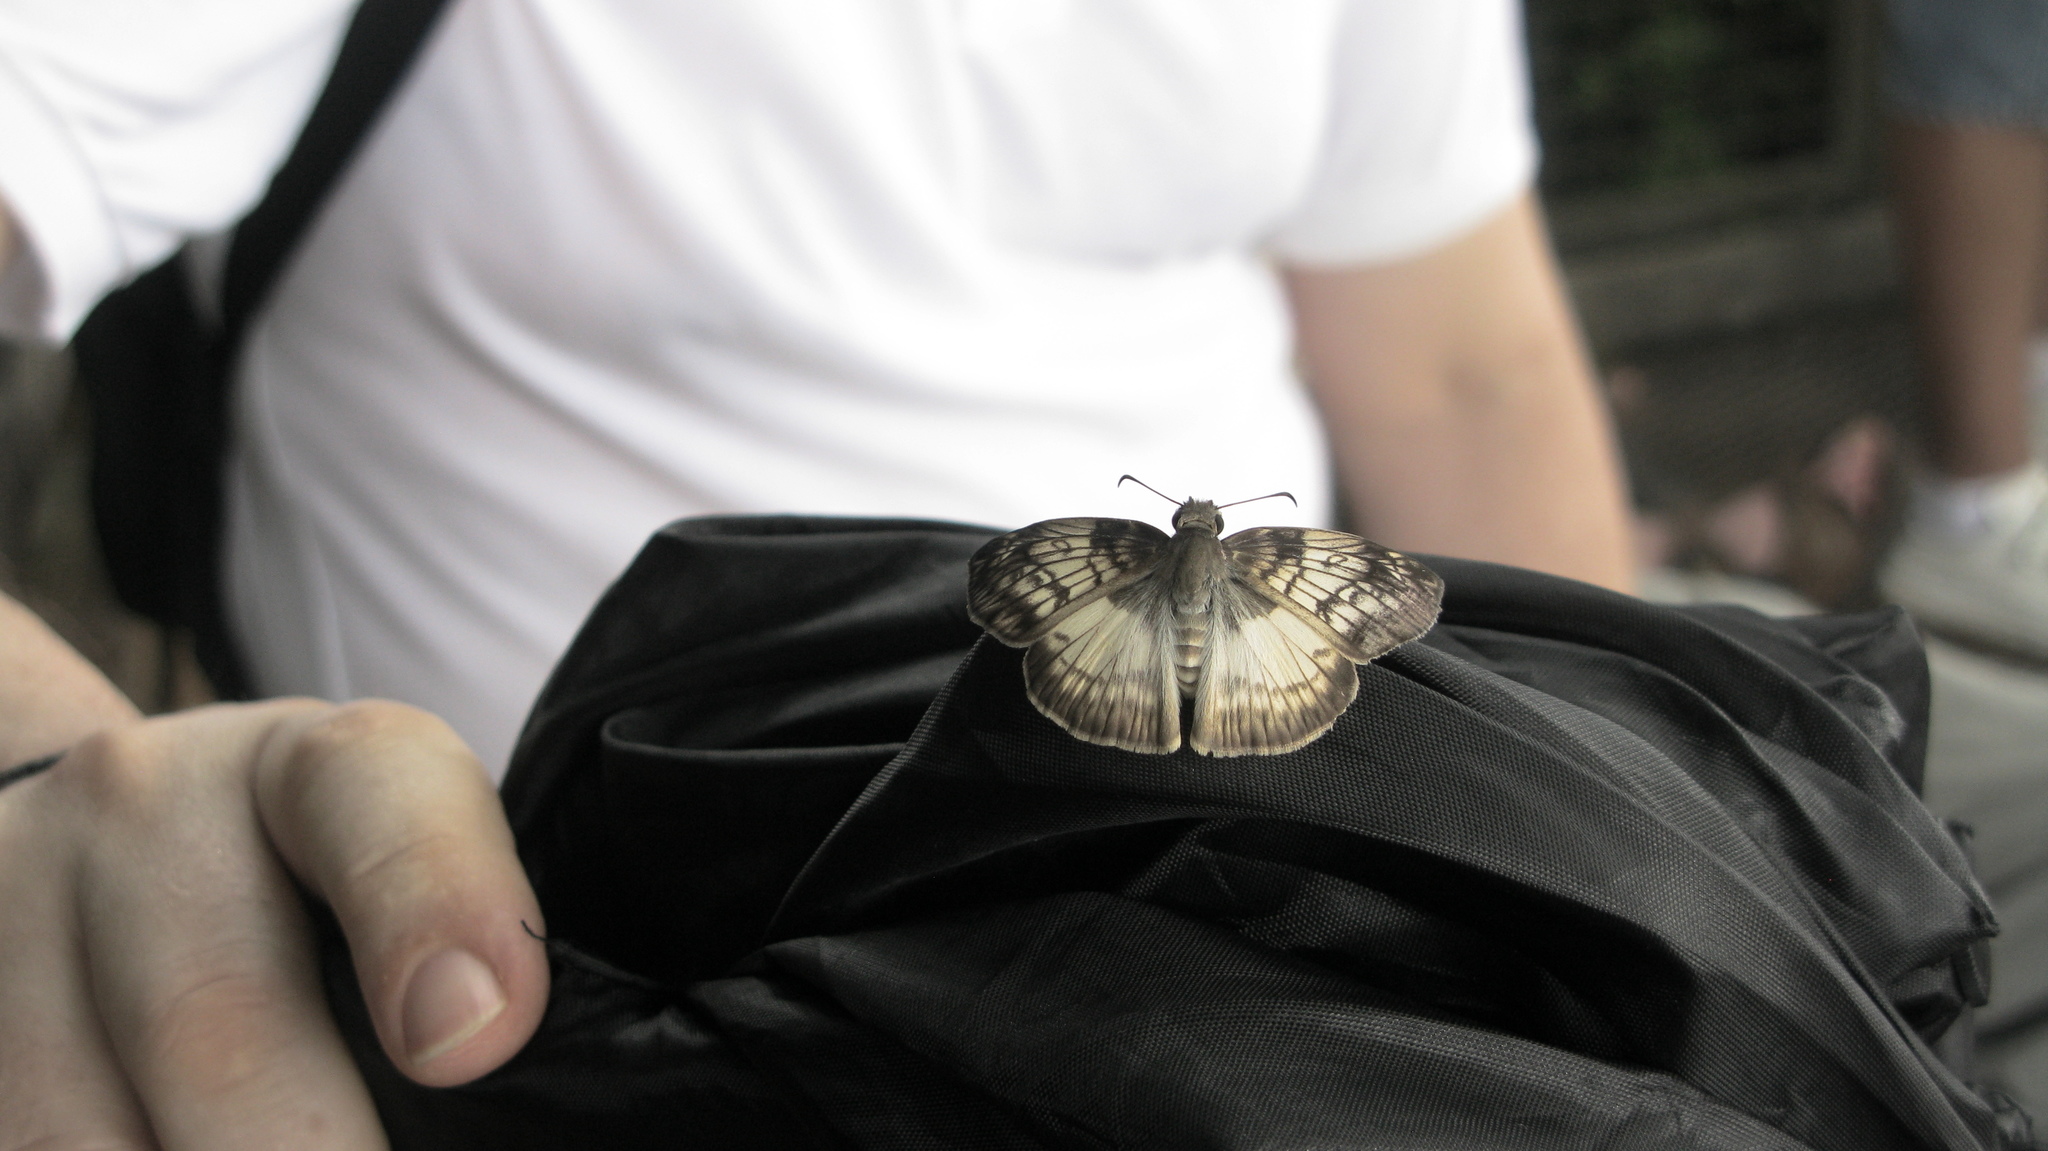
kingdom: Animalia
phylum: Arthropoda
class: Insecta
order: Lepidoptera
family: Hesperiidae
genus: Mylon
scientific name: Mylon maimon
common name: Common mylon
